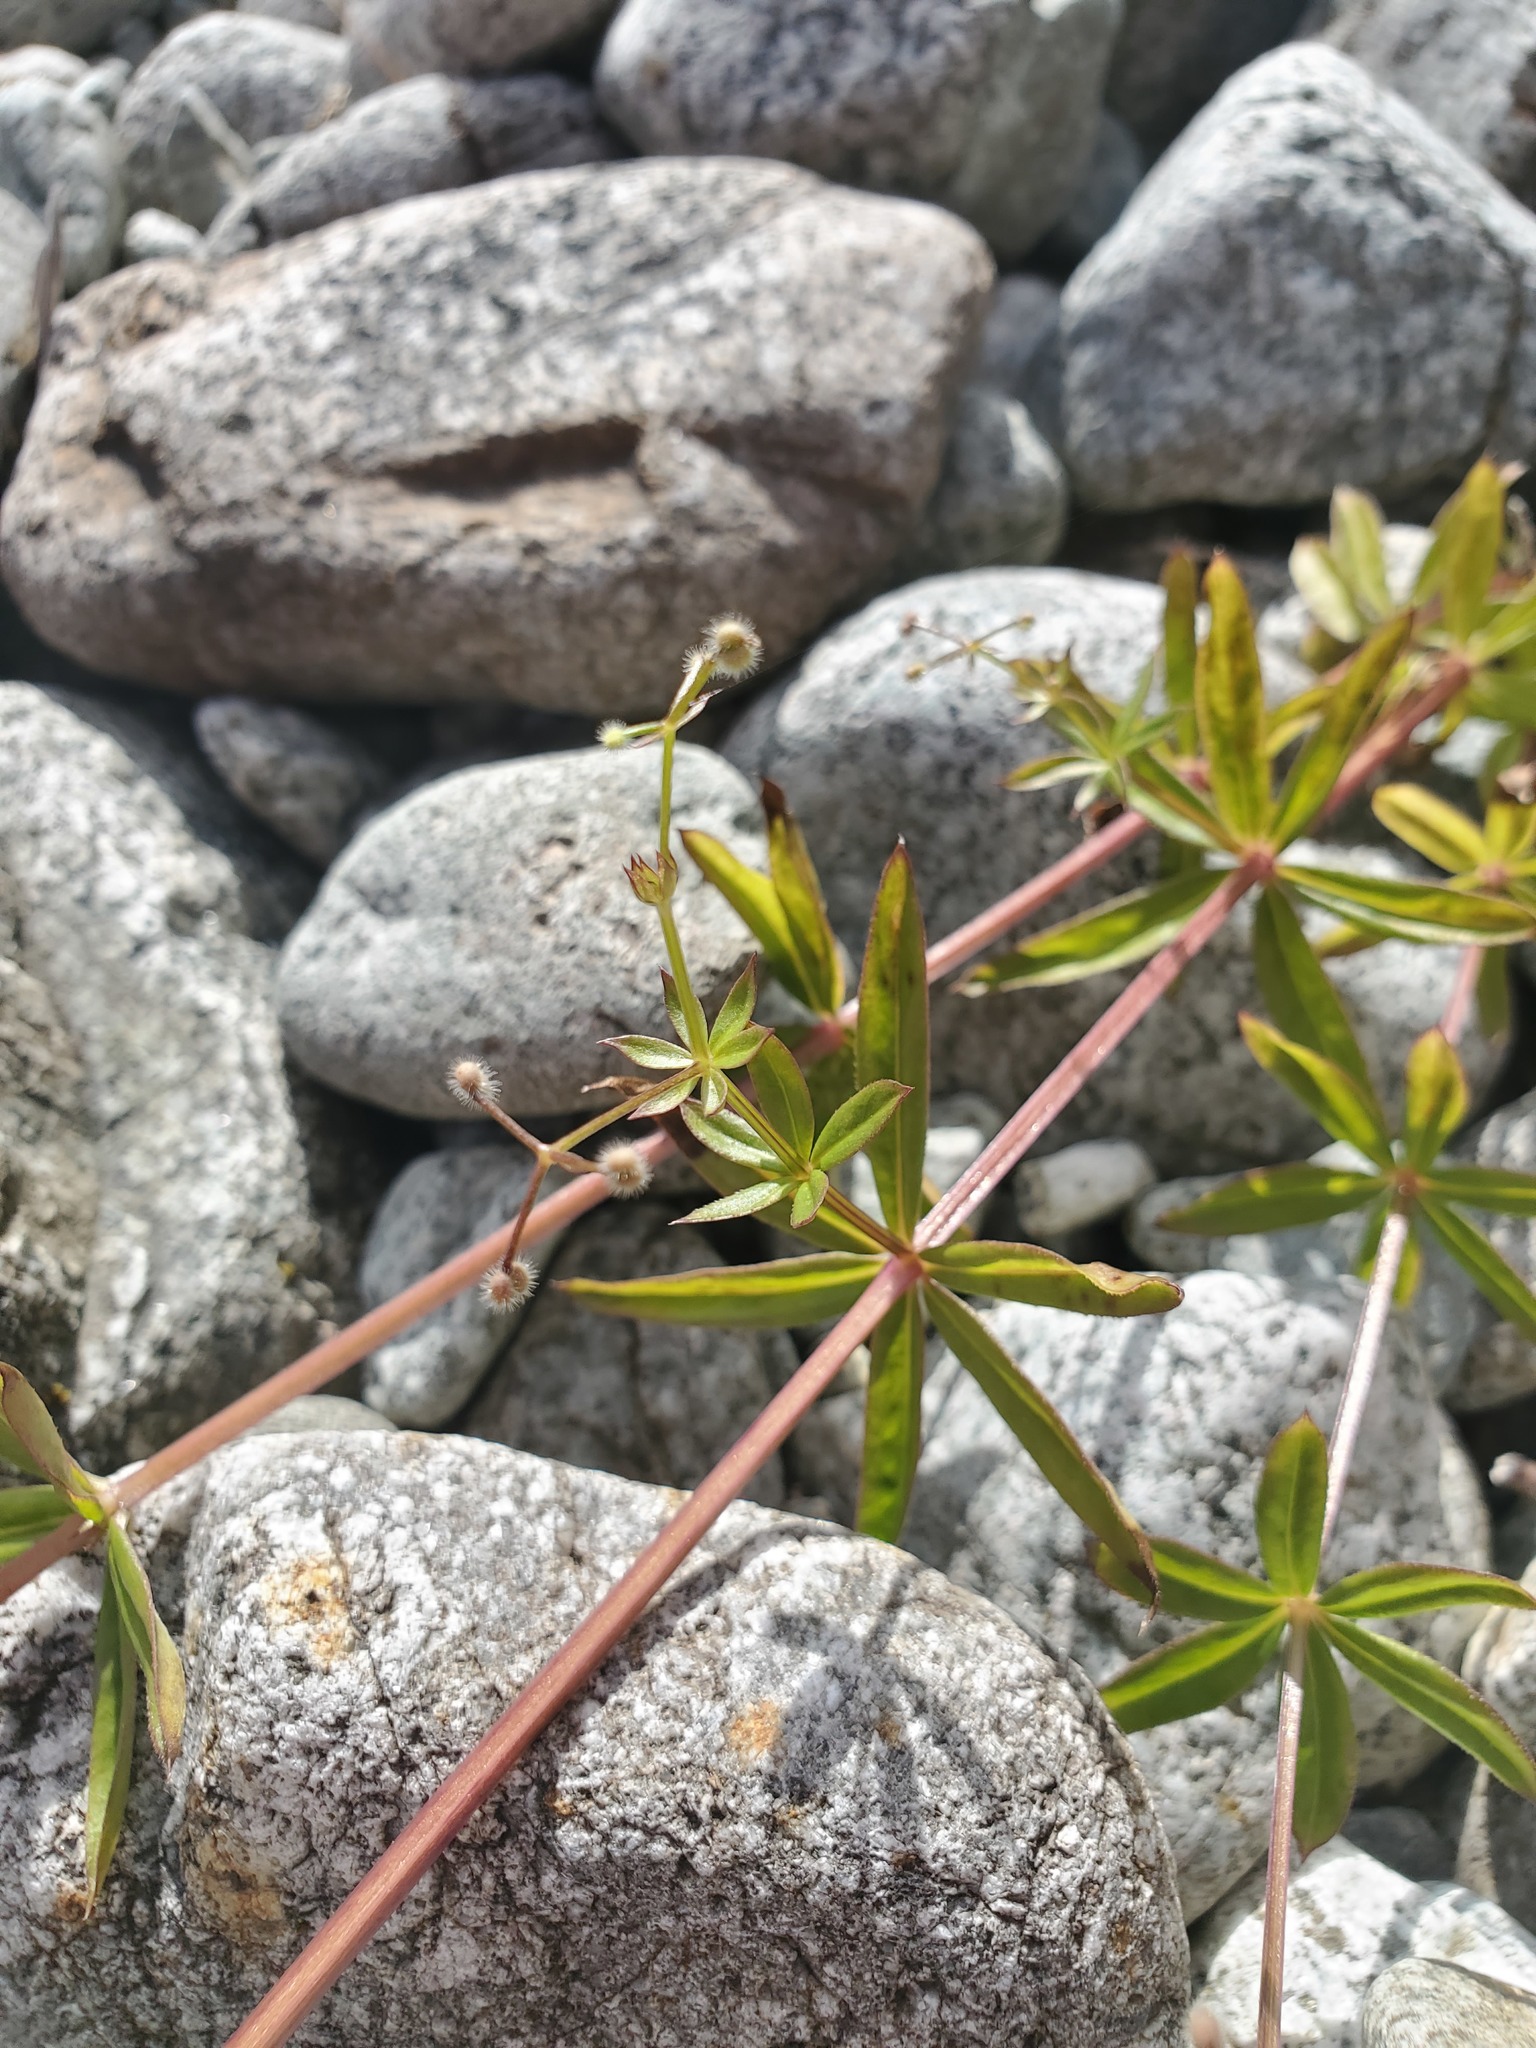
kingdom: Plantae
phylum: Tracheophyta
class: Magnoliopsida
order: Gentianales
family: Rubiaceae
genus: Galium
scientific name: Galium triflorum
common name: Fragrant bedstraw
